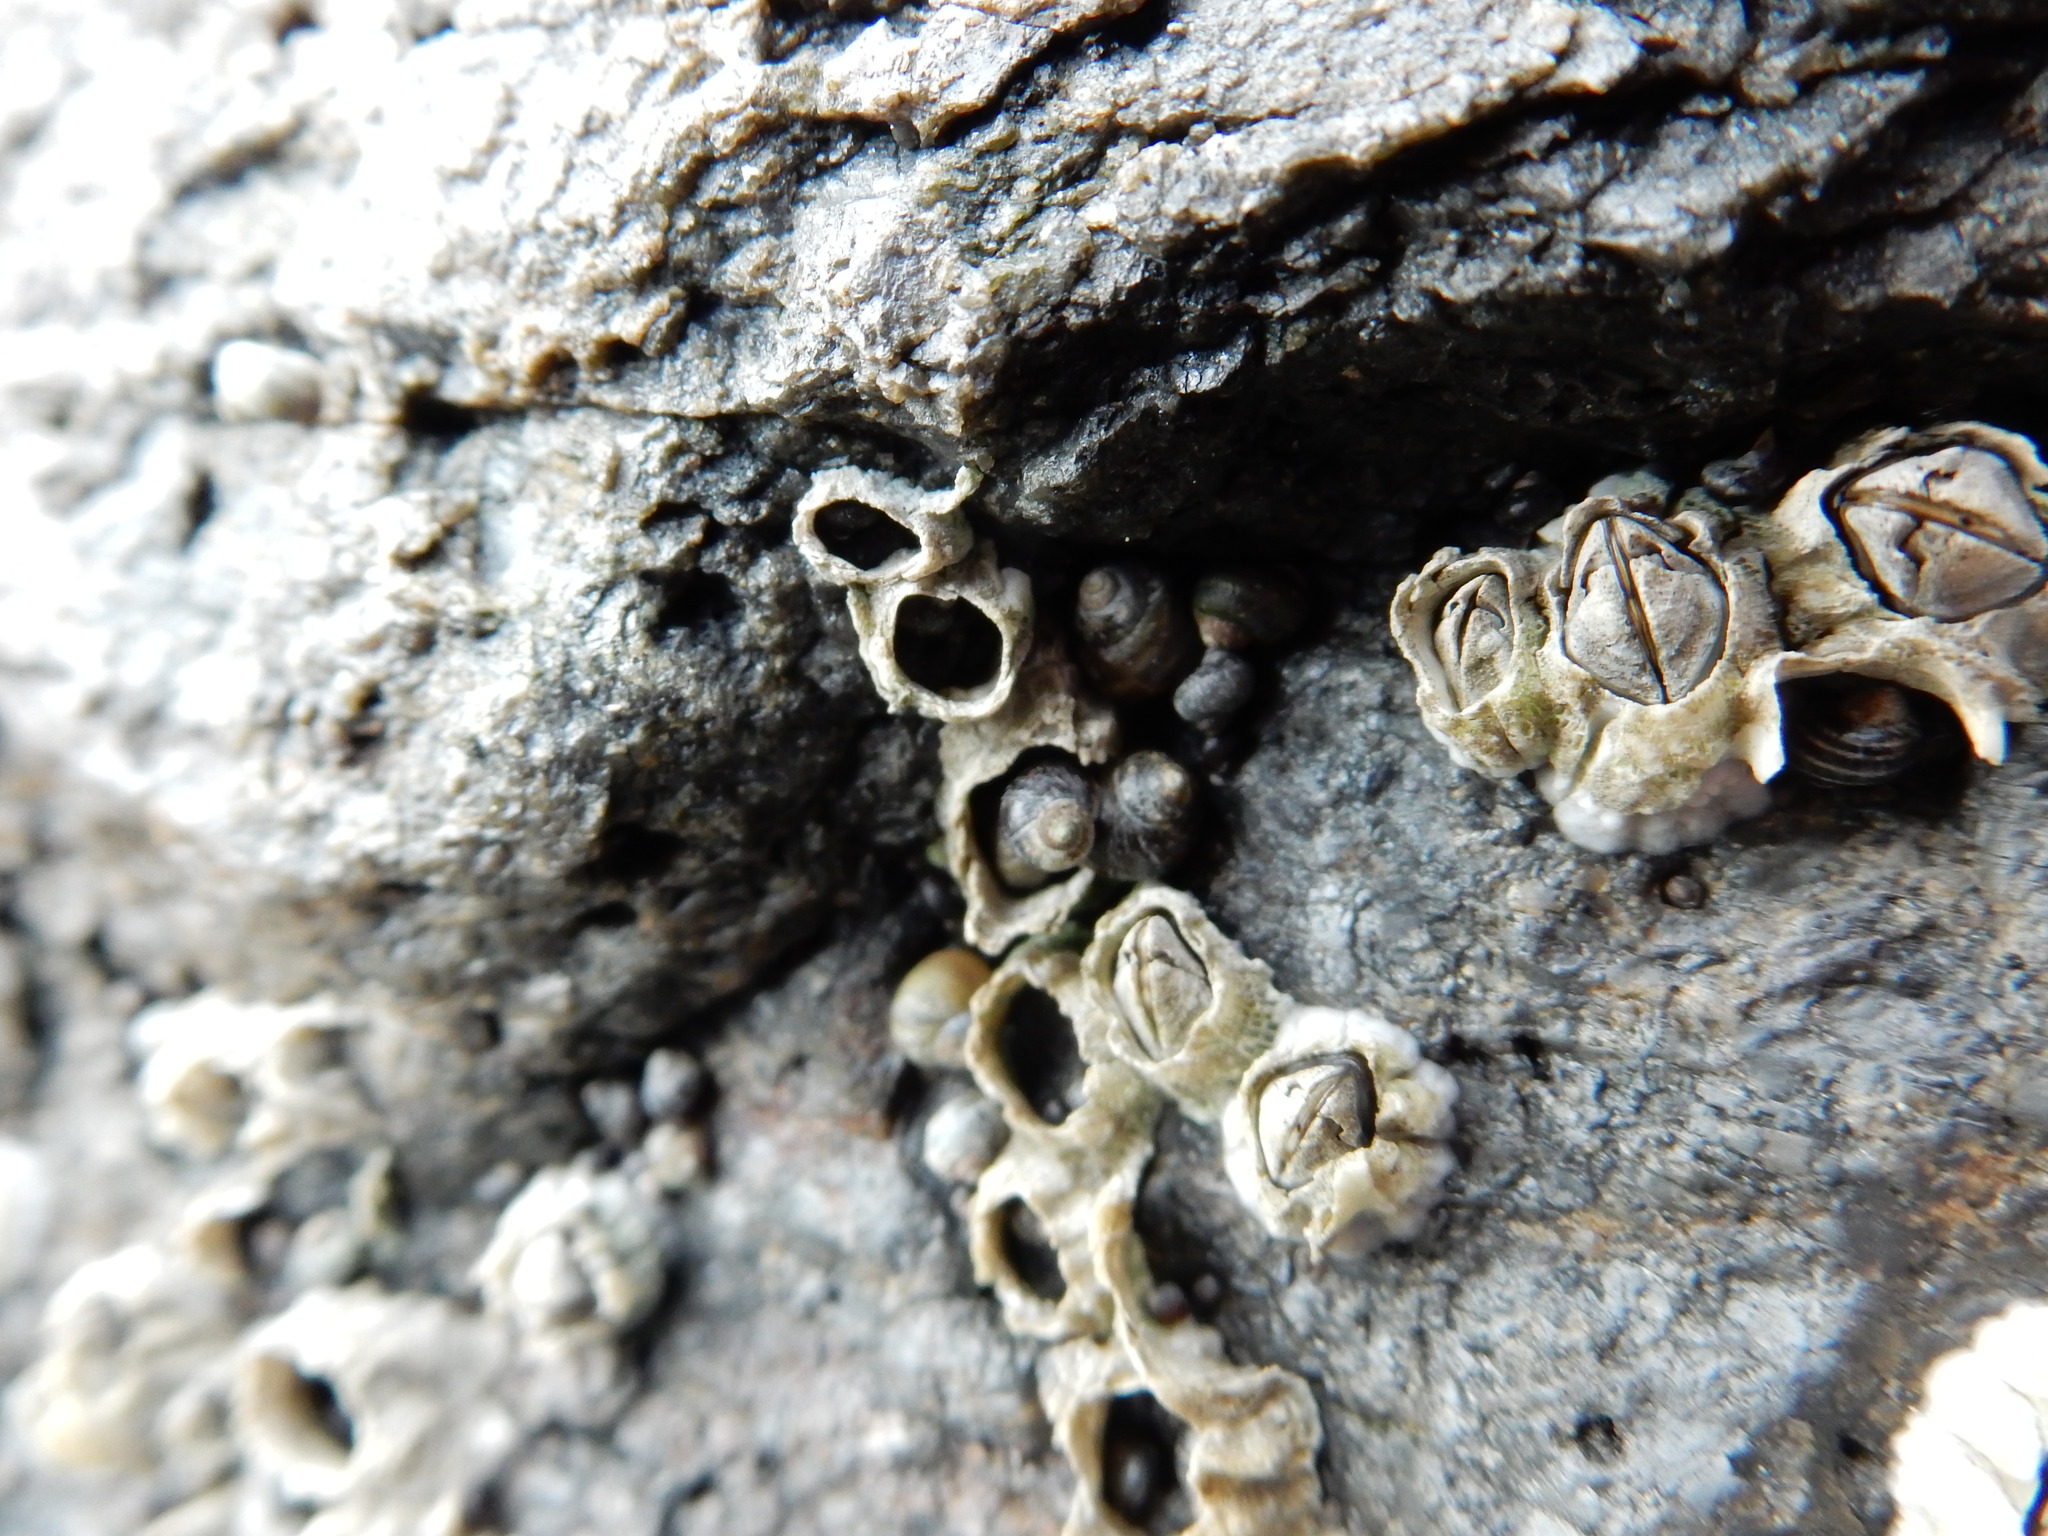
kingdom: Animalia
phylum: Arthropoda
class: Maxillopoda
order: Sessilia
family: Archaeobalanidae
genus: Semibalanus
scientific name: Semibalanus balanoides
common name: Acorn barnacle
